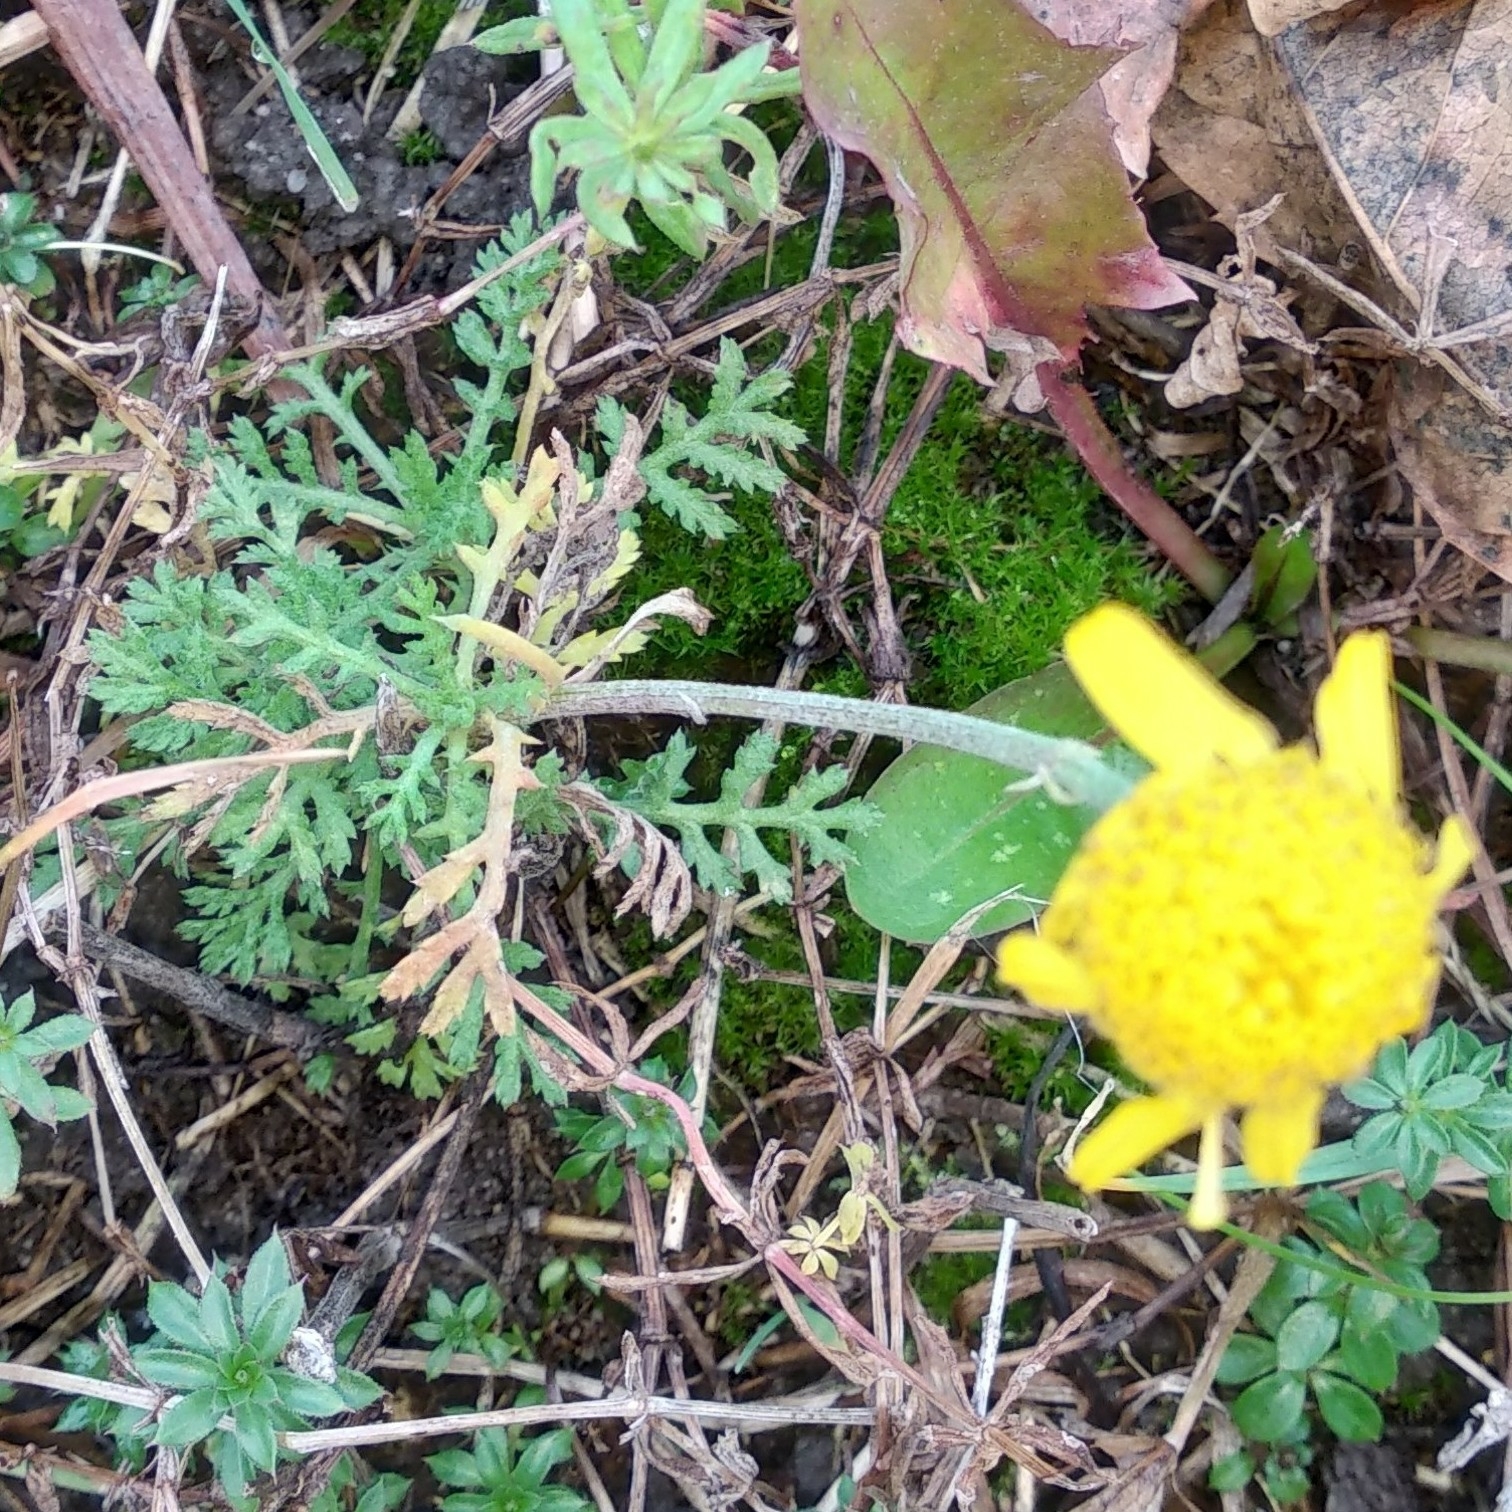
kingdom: Plantae
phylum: Tracheophyta
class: Magnoliopsida
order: Asterales
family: Asteraceae
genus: Cota
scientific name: Cota tinctoria
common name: Golden chamomile
